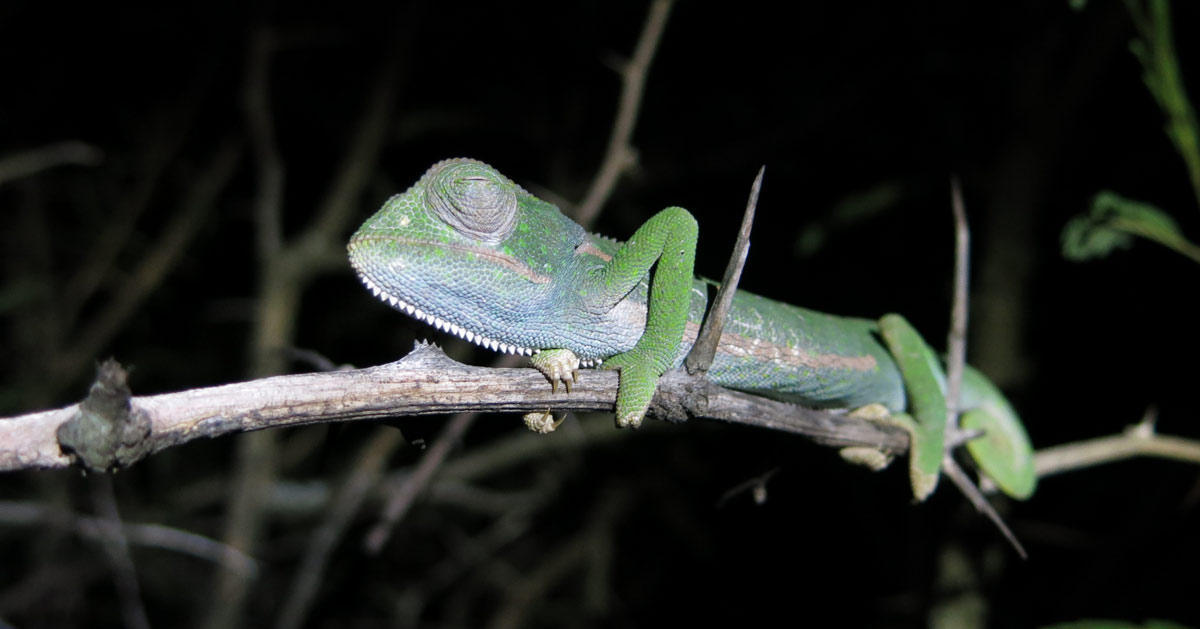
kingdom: Animalia
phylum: Chordata
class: Squamata
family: Chamaeleonidae
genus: Chamaeleo
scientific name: Chamaeleo dilepis
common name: Flapneck chameleon
